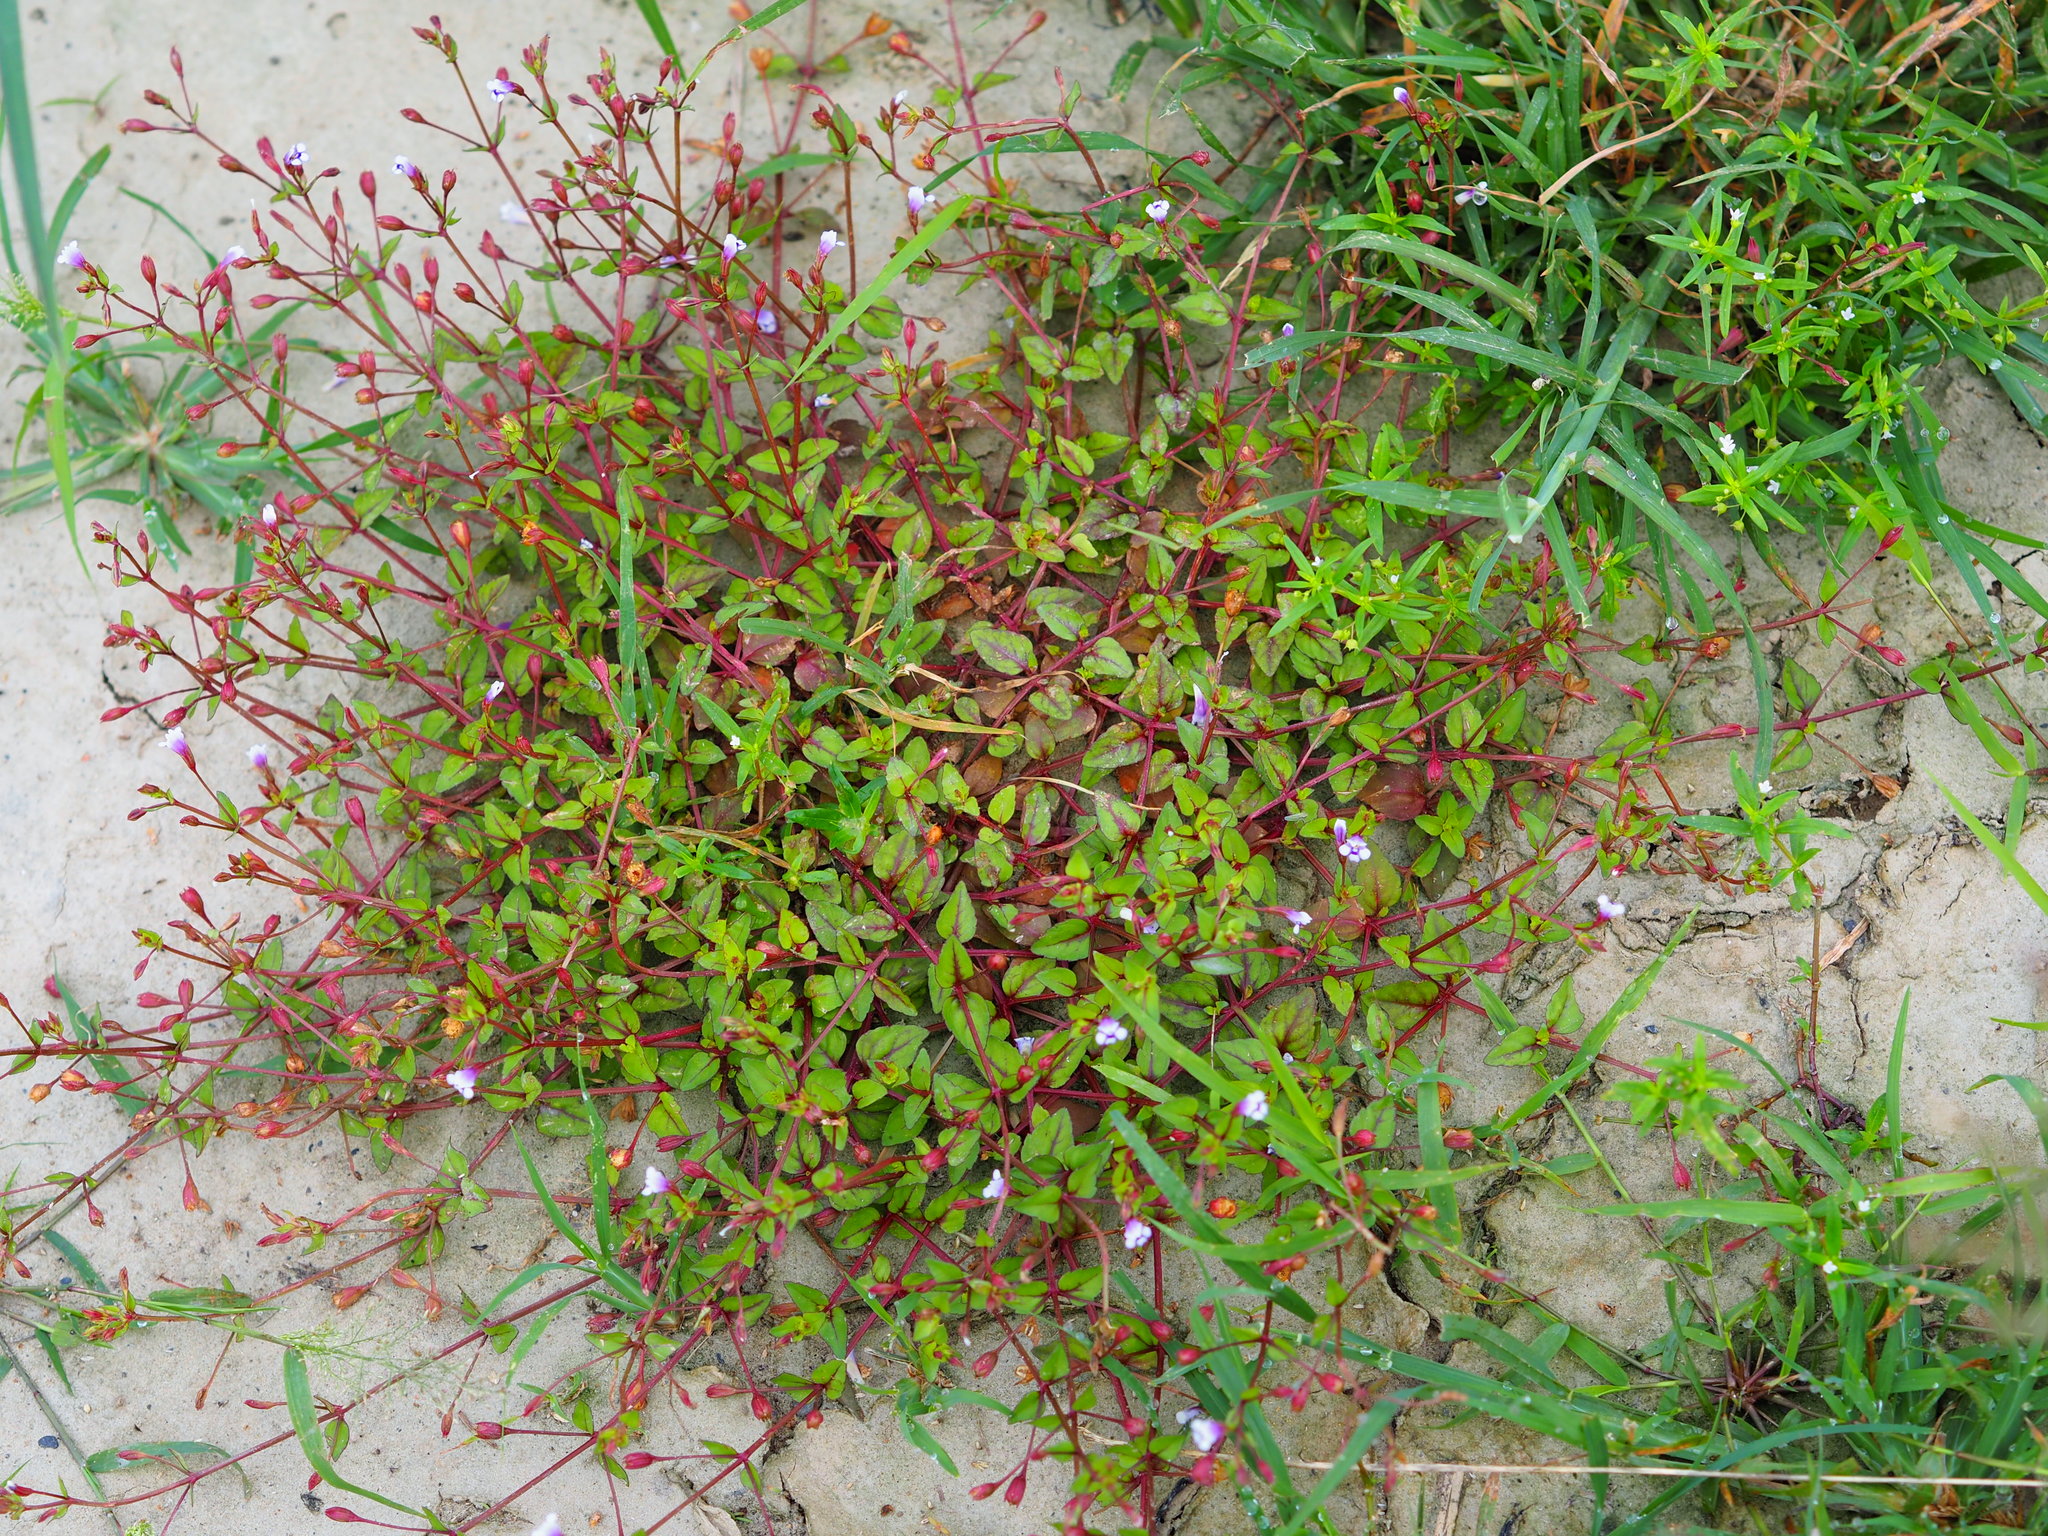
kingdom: Plantae
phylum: Tracheophyta
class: Magnoliopsida
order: Lamiales
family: Linderniaceae
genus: Torenia
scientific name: Torenia crustacea
